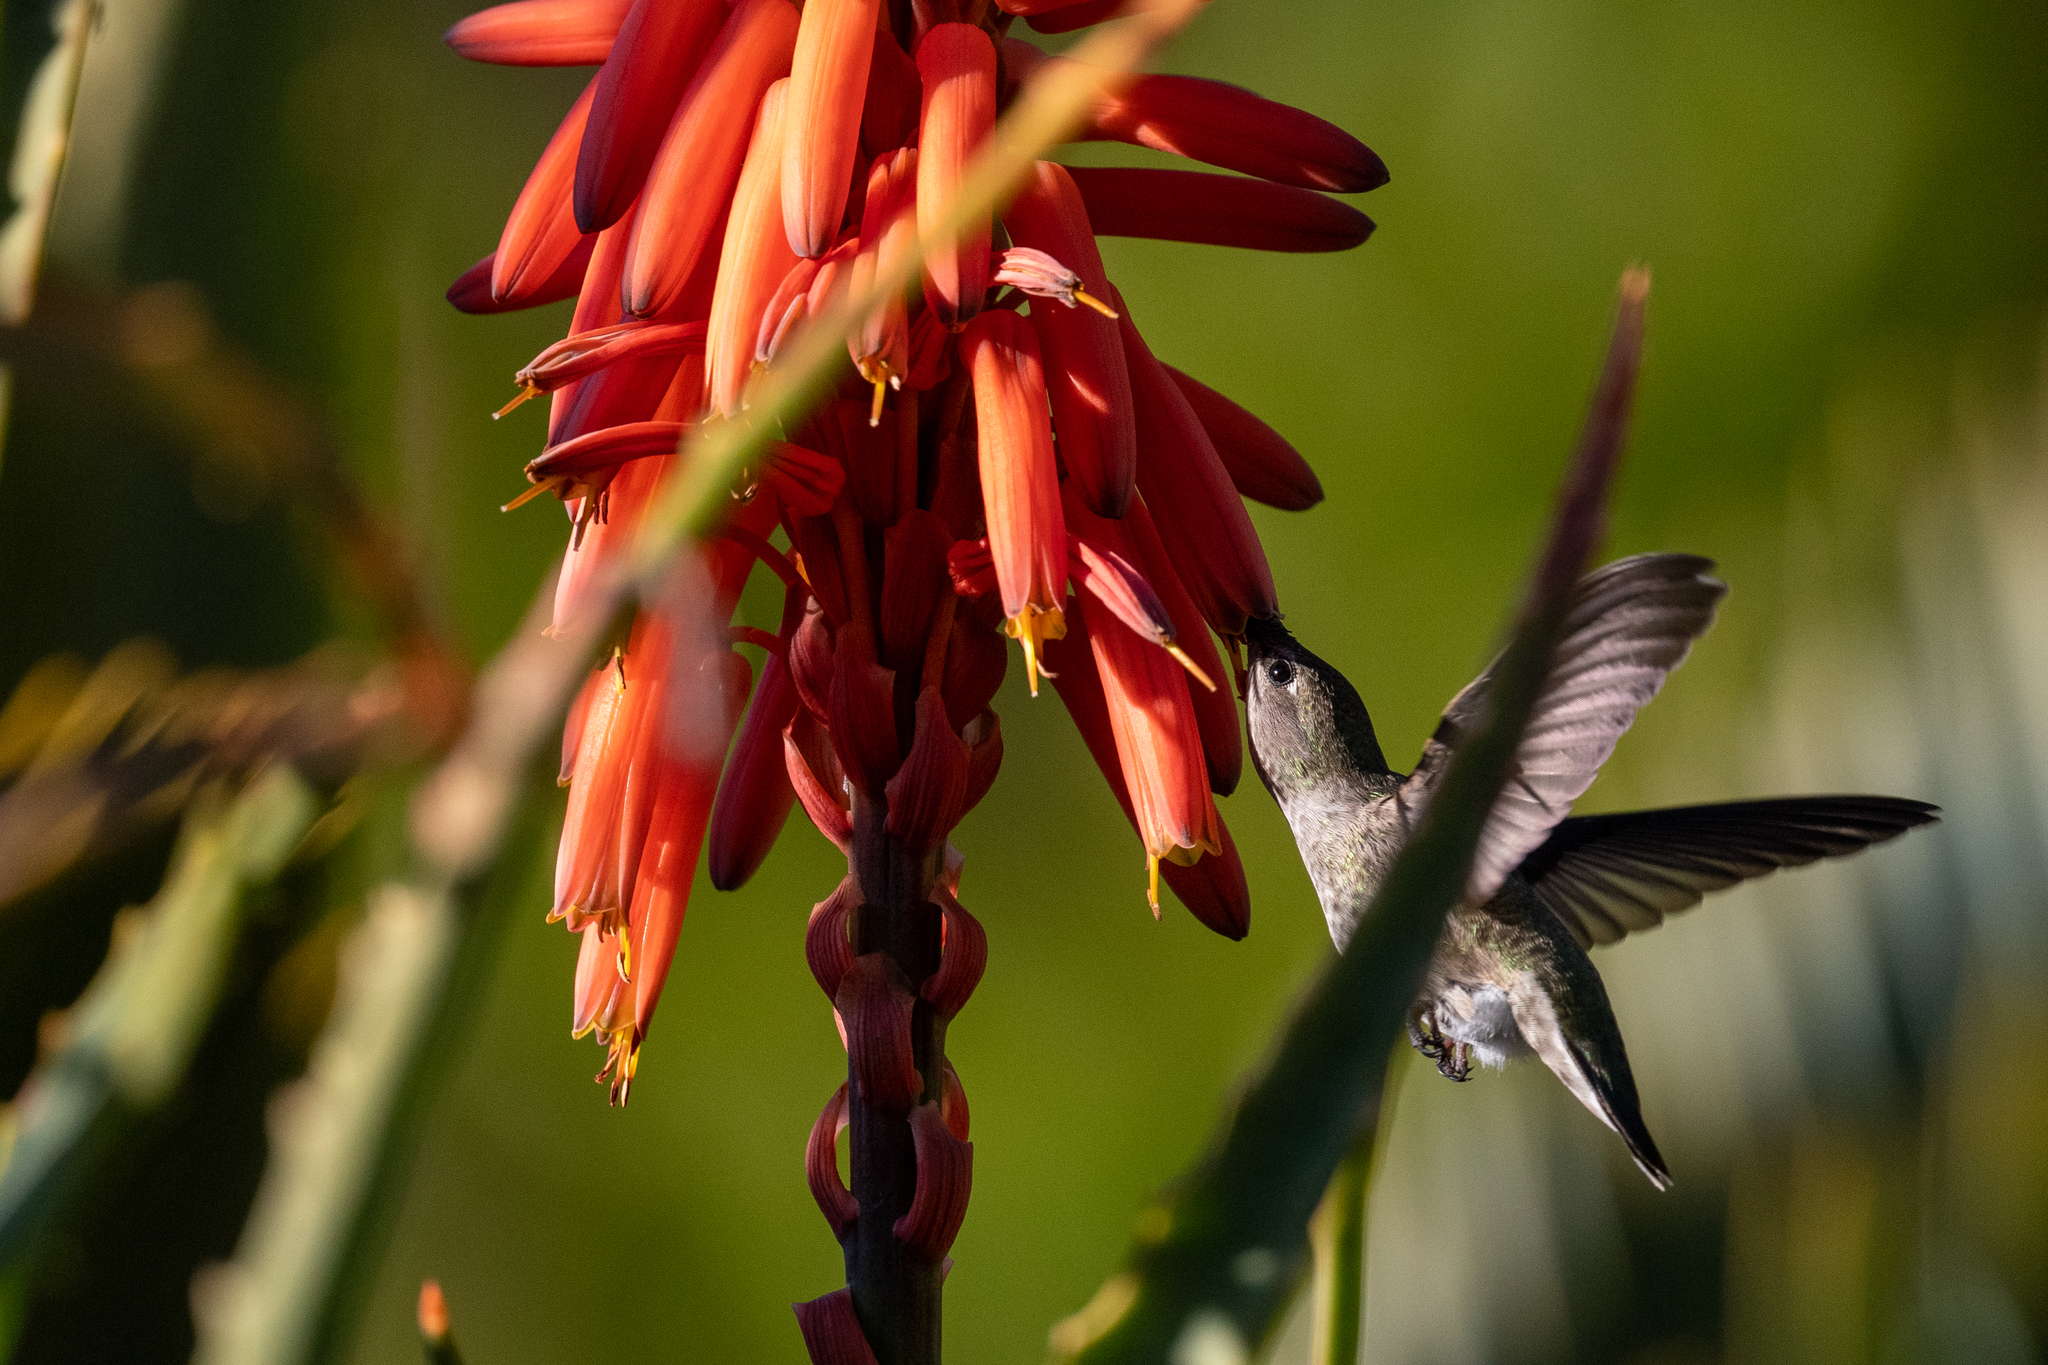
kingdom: Animalia
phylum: Chordata
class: Aves
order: Apodiformes
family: Trochilidae
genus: Calypte
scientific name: Calypte anna
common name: Anna's hummingbird
